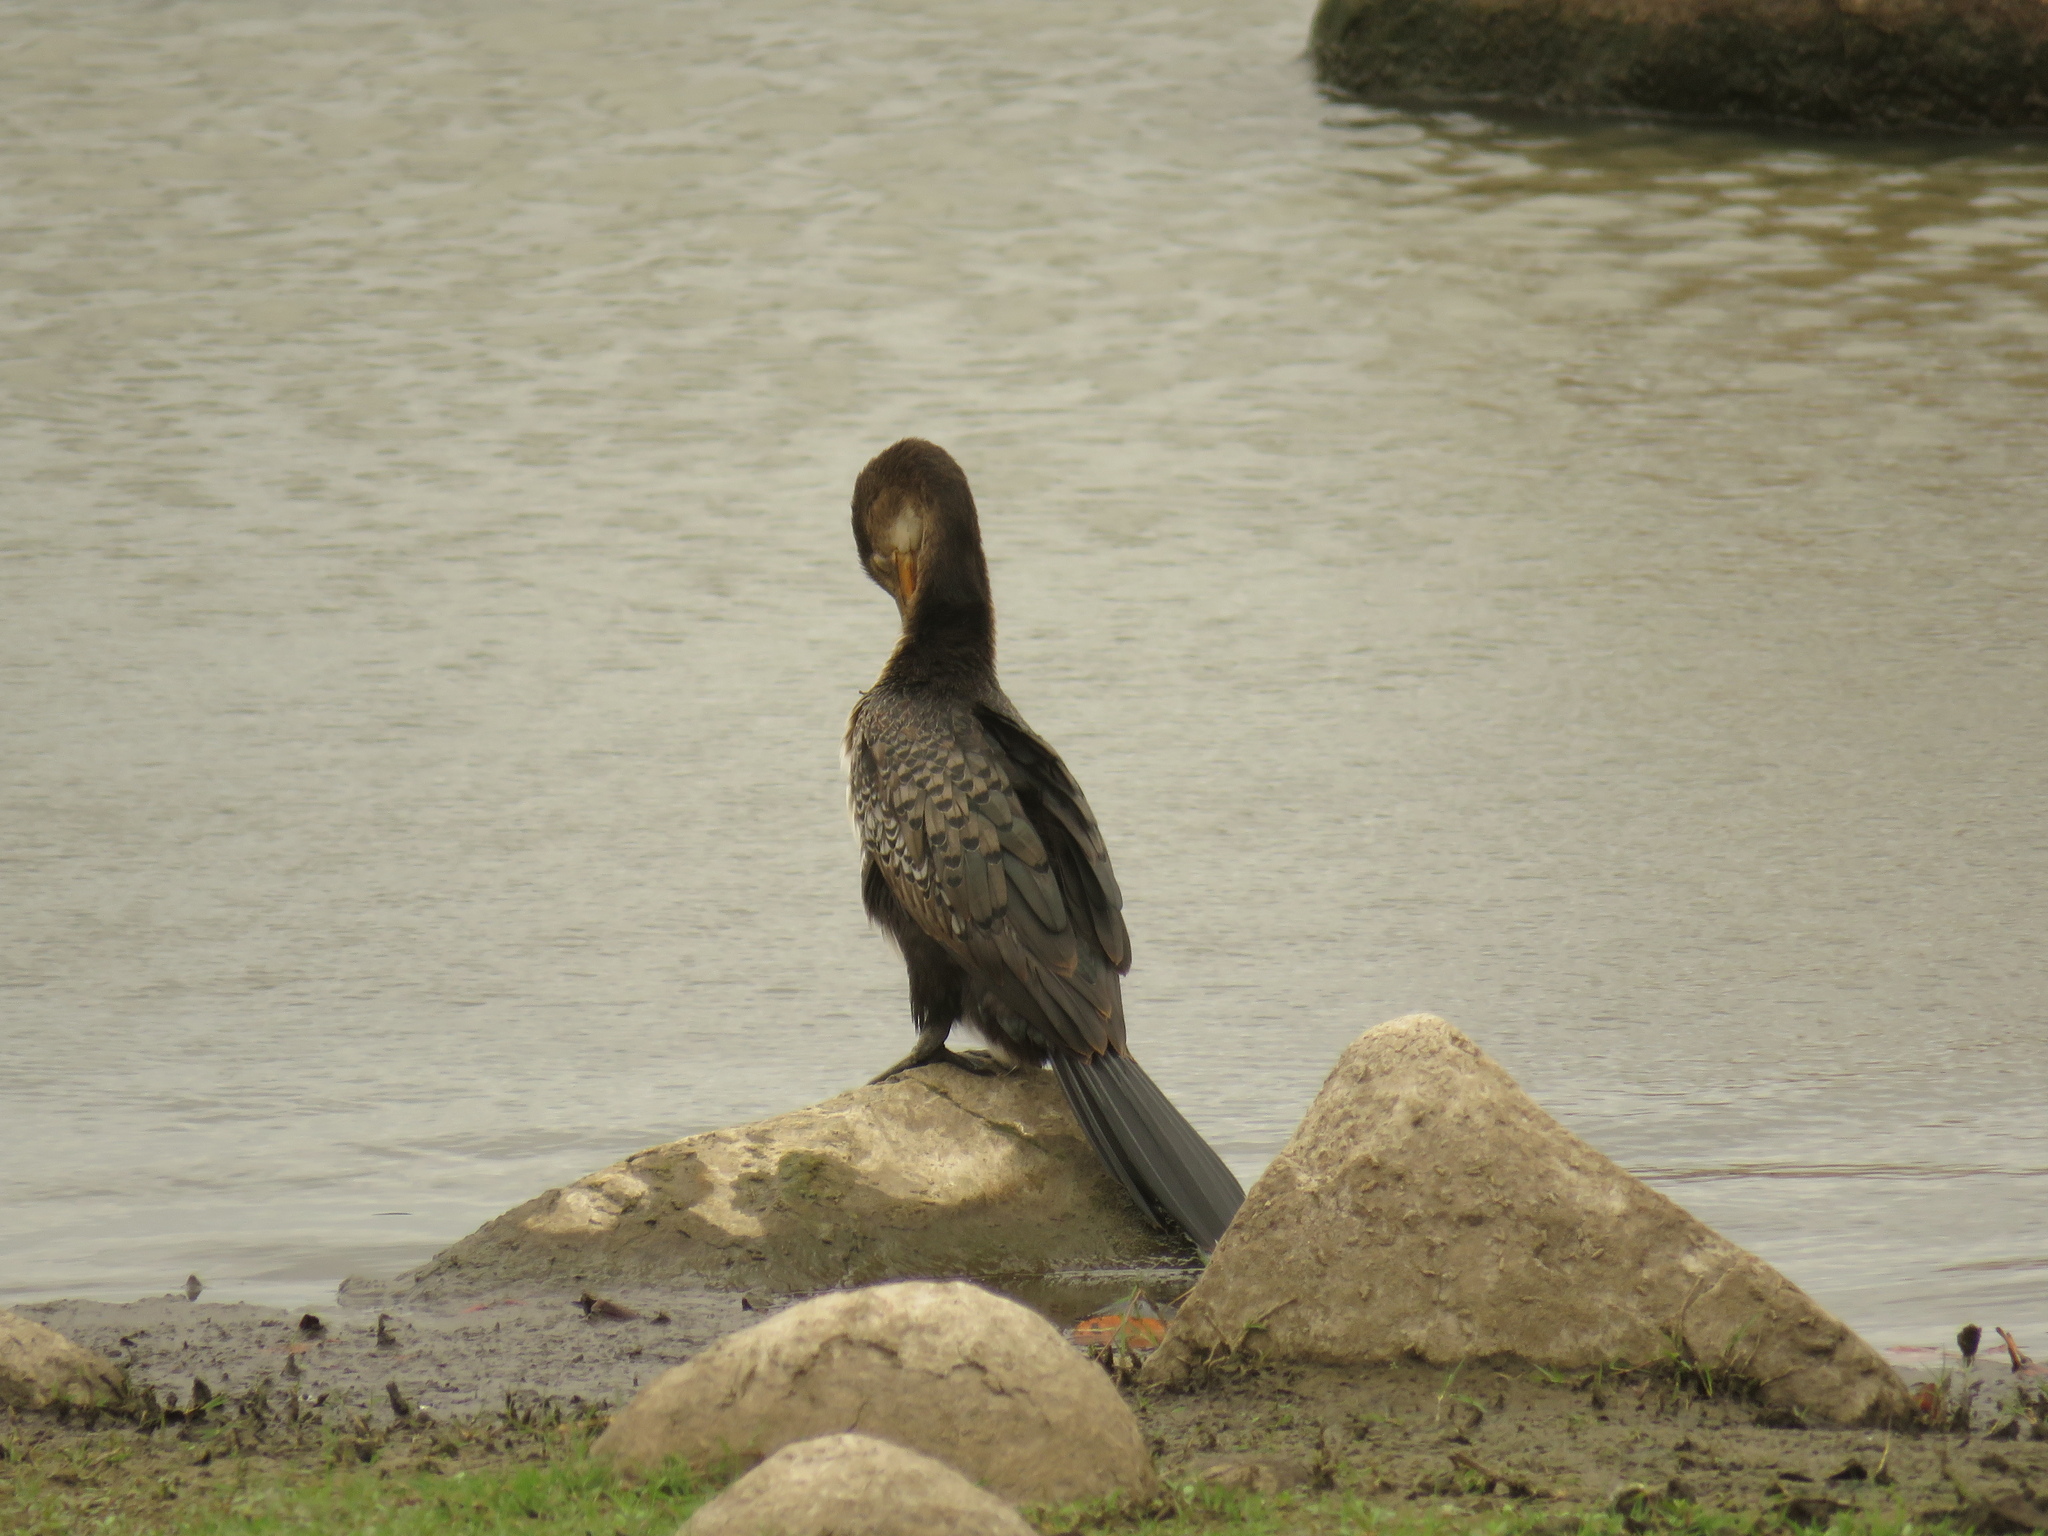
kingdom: Animalia
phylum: Chordata
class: Aves
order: Suliformes
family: Phalacrocoracidae
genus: Microcarbo
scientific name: Microcarbo africanus
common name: Long-tailed cormorant
